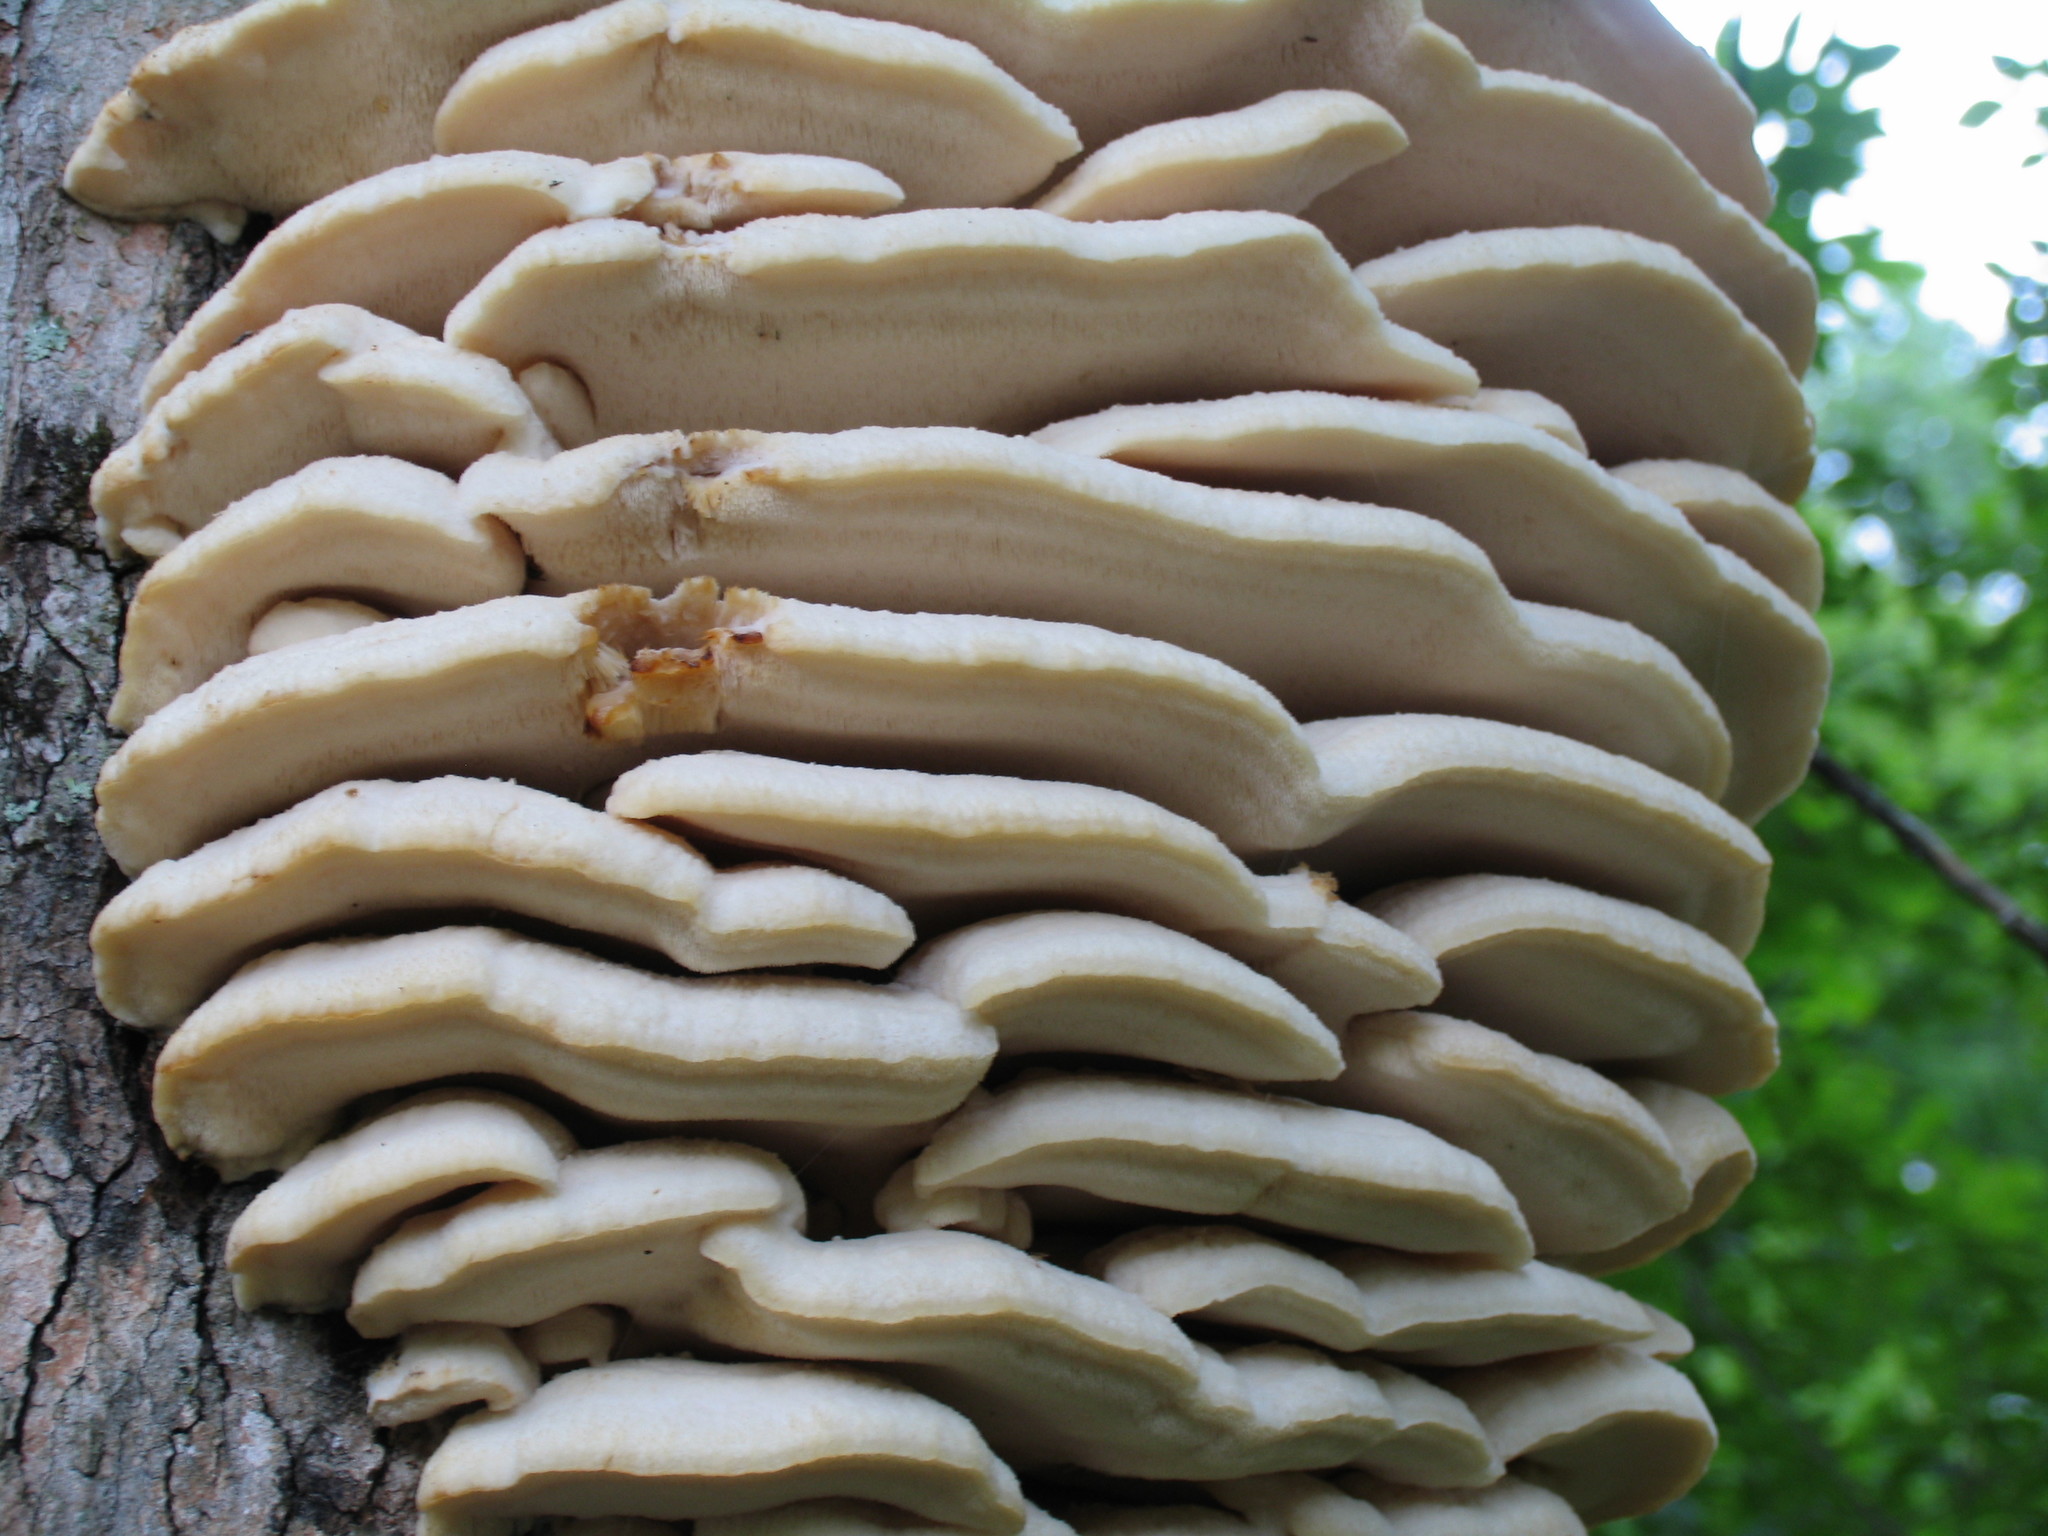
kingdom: Fungi
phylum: Basidiomycota
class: Agaricomycetes
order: Polyporales
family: Meruliaceae
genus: Climacodon
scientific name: Climacodon septentrionalis
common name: Northern tooth
